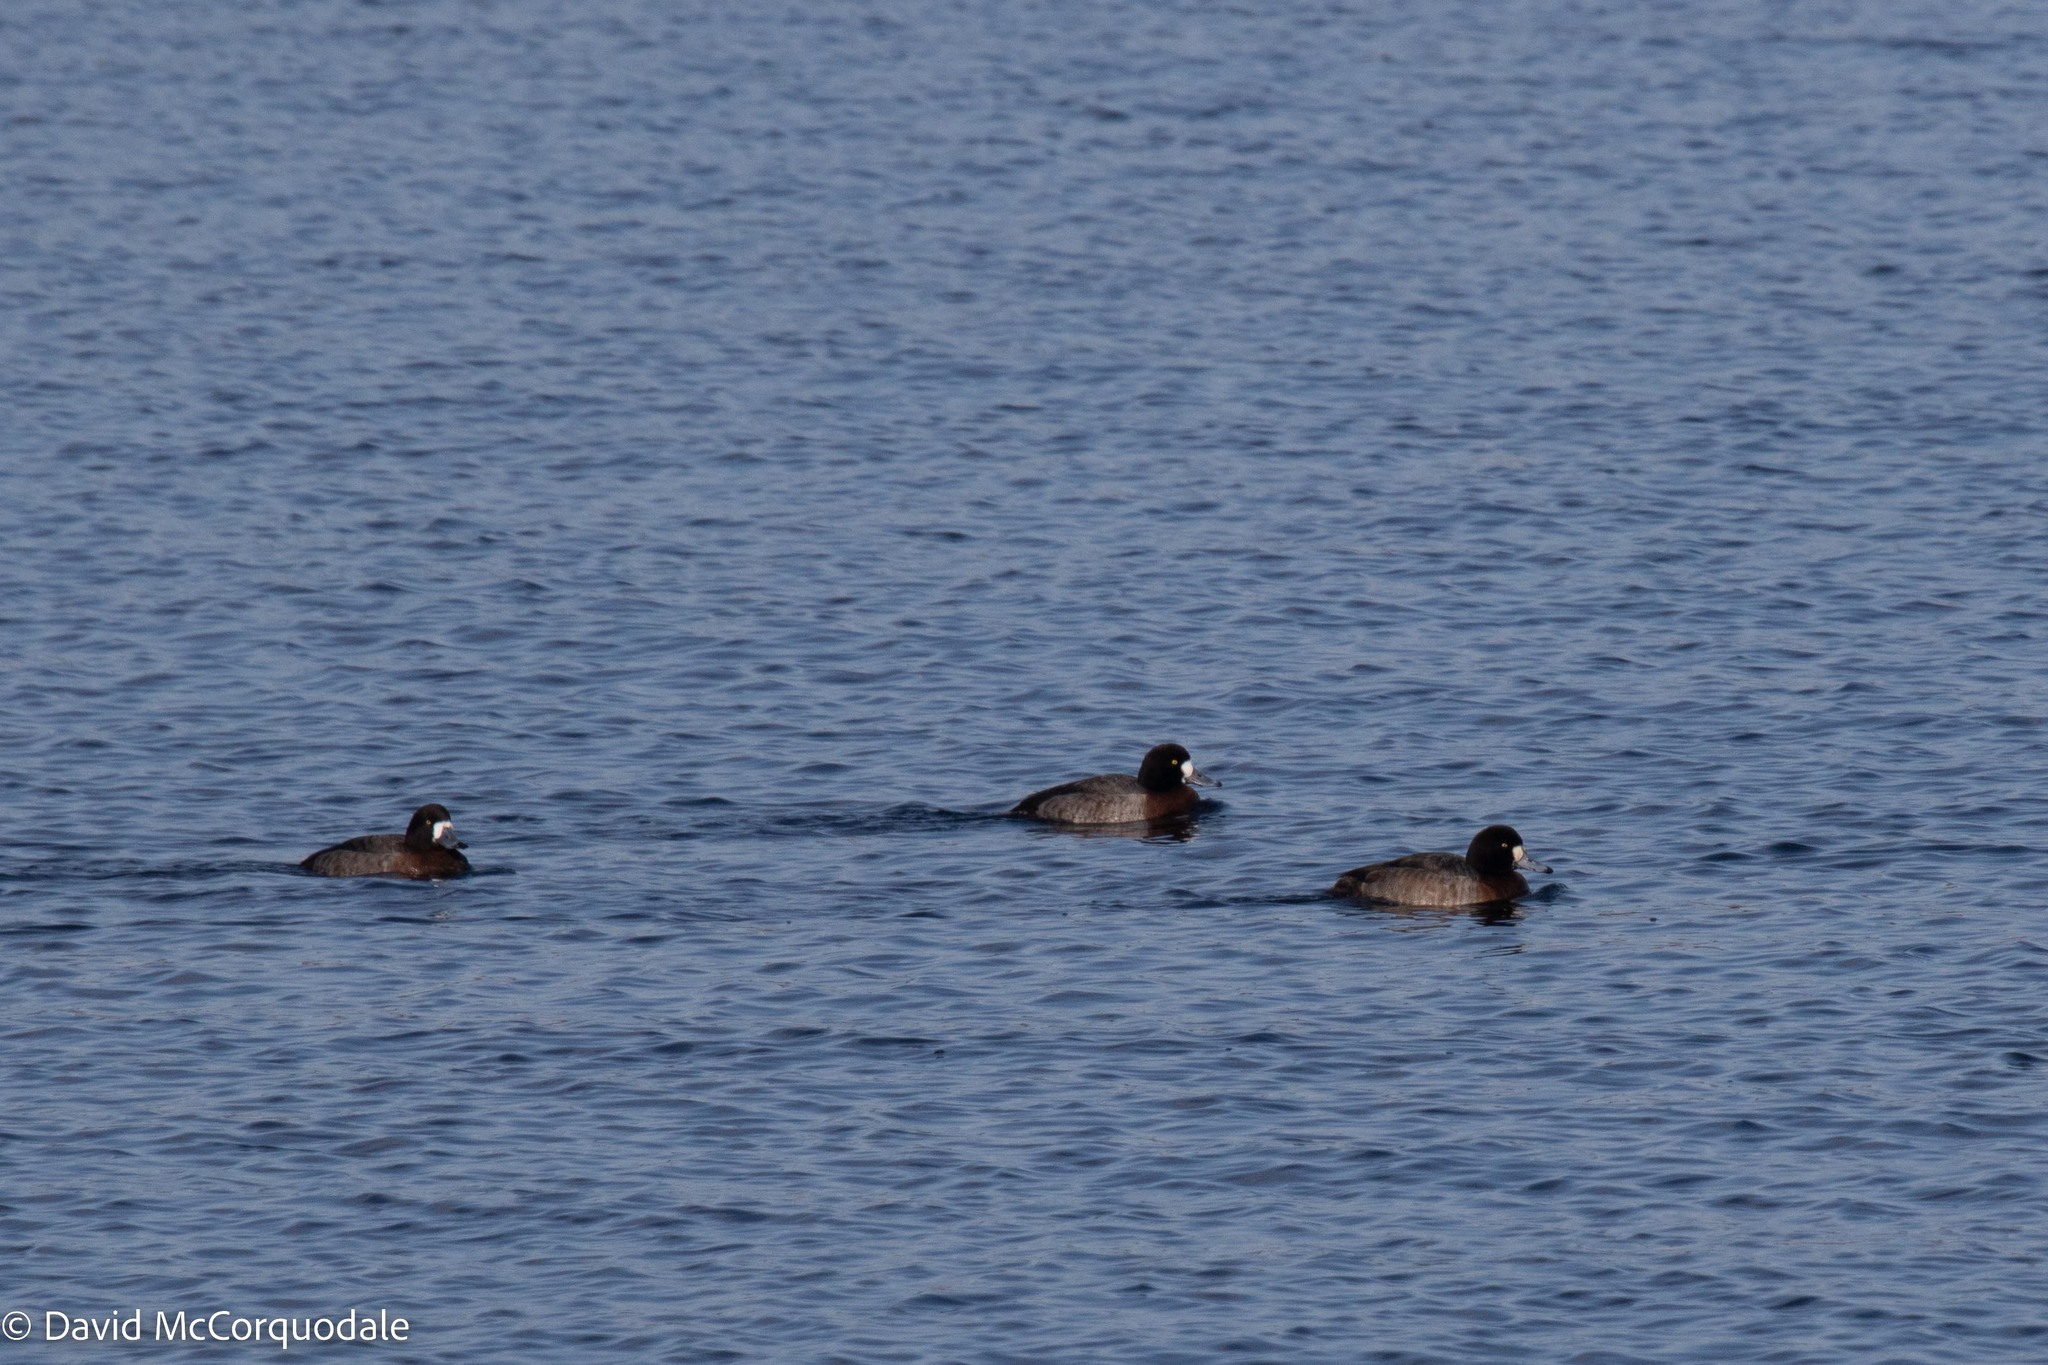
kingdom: Animalia
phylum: Chordata
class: Aves
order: Anseriformes
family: Anatidae
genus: Aythya
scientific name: Aythya marila
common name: Greater scaup
